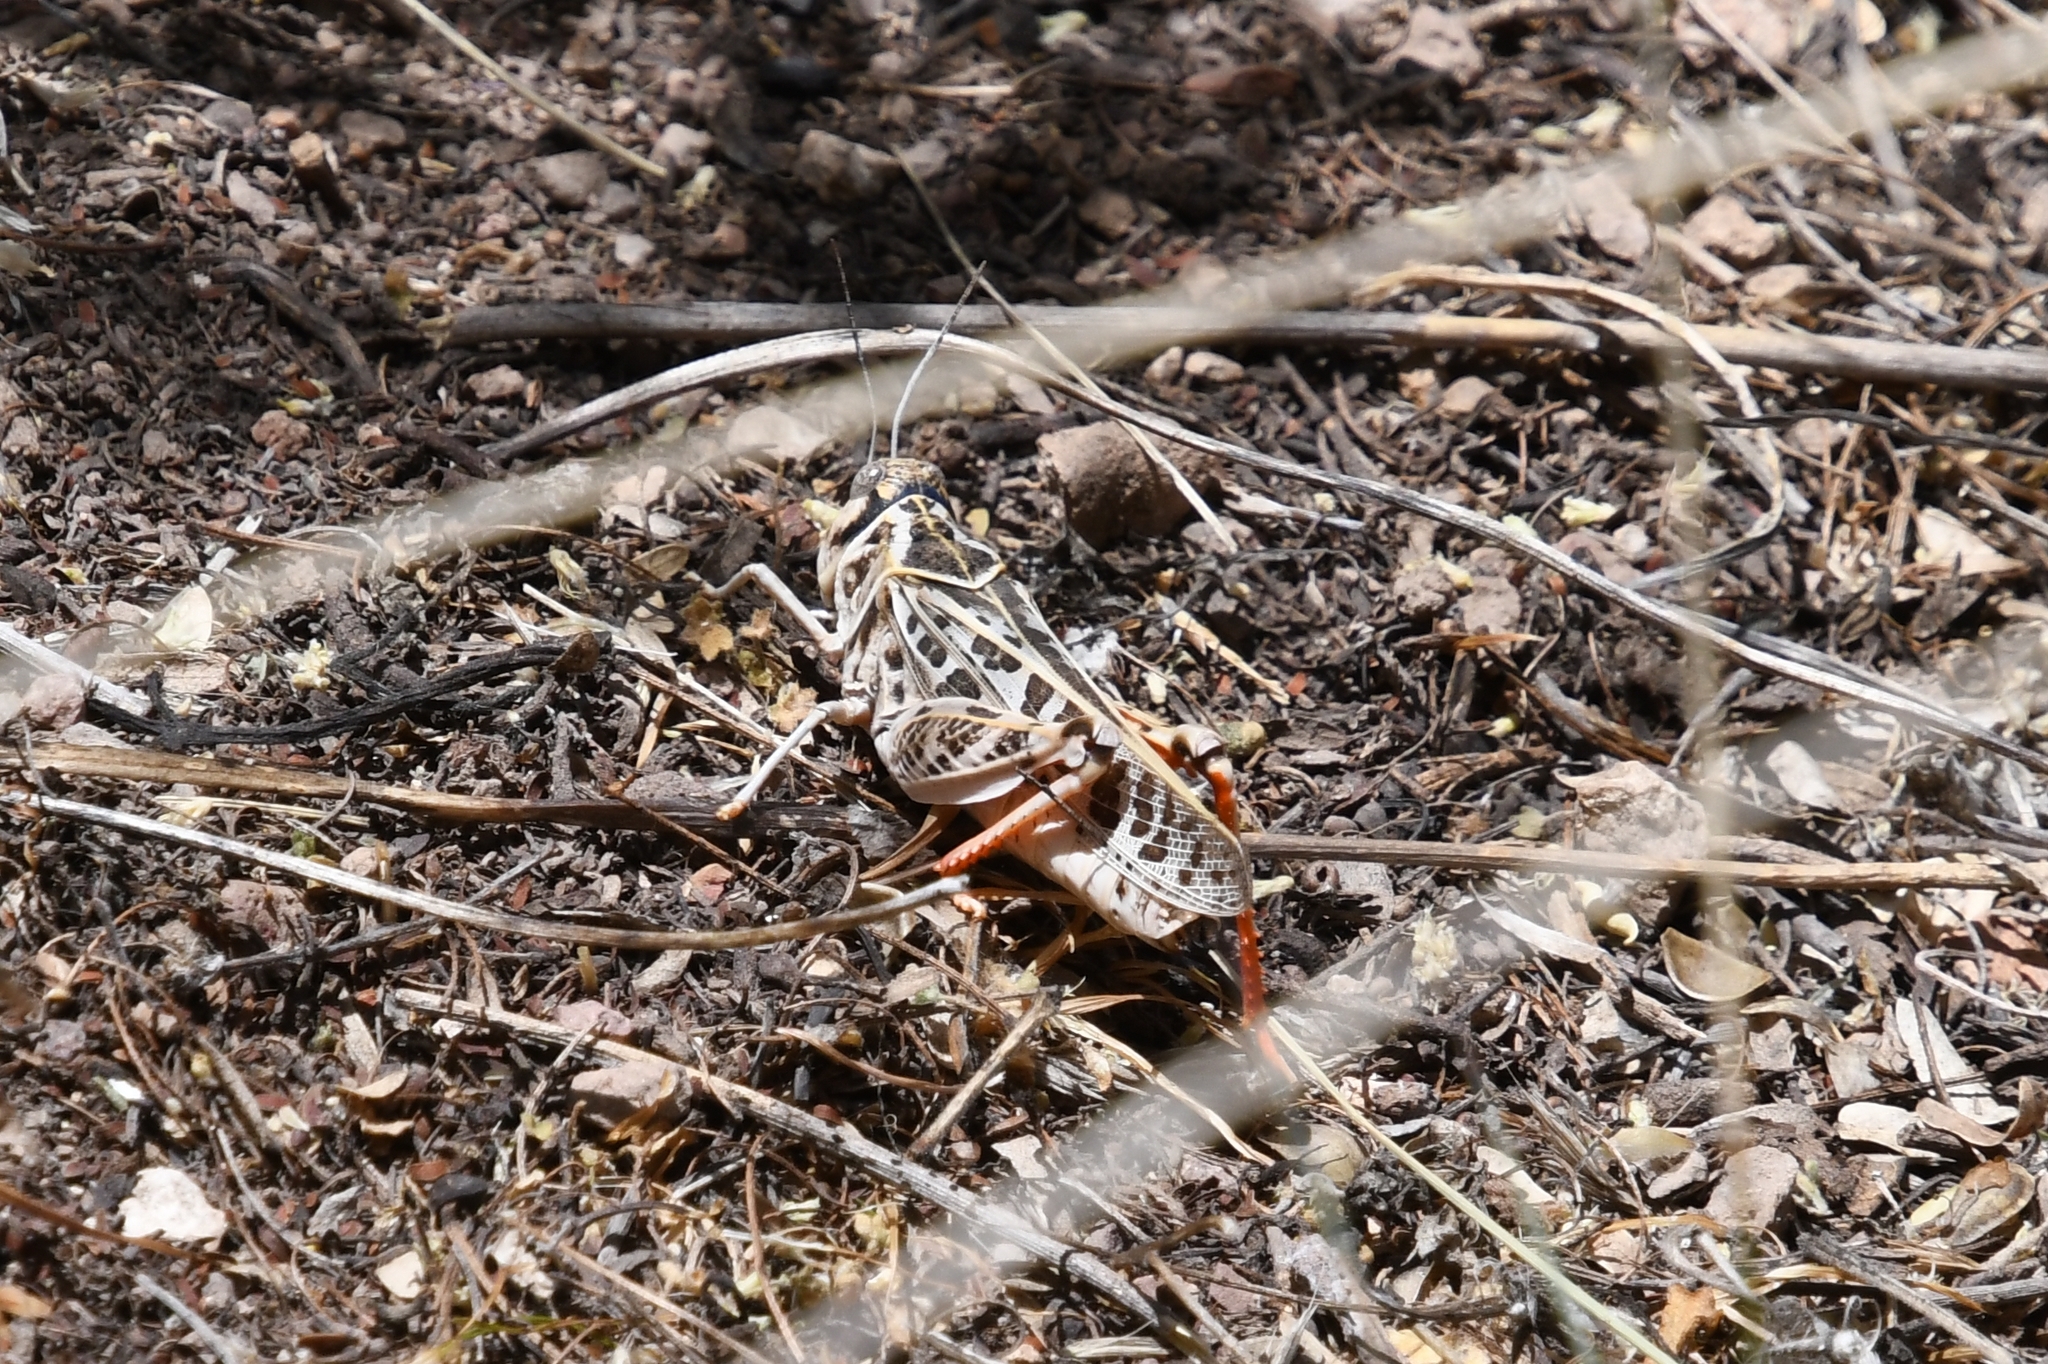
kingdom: Animalia
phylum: Arthropoda
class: Insecta
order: Orthoptera
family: Acrididae
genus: Xanthippus
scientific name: Xanthippus corallipes
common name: Redshanked grasshopper
